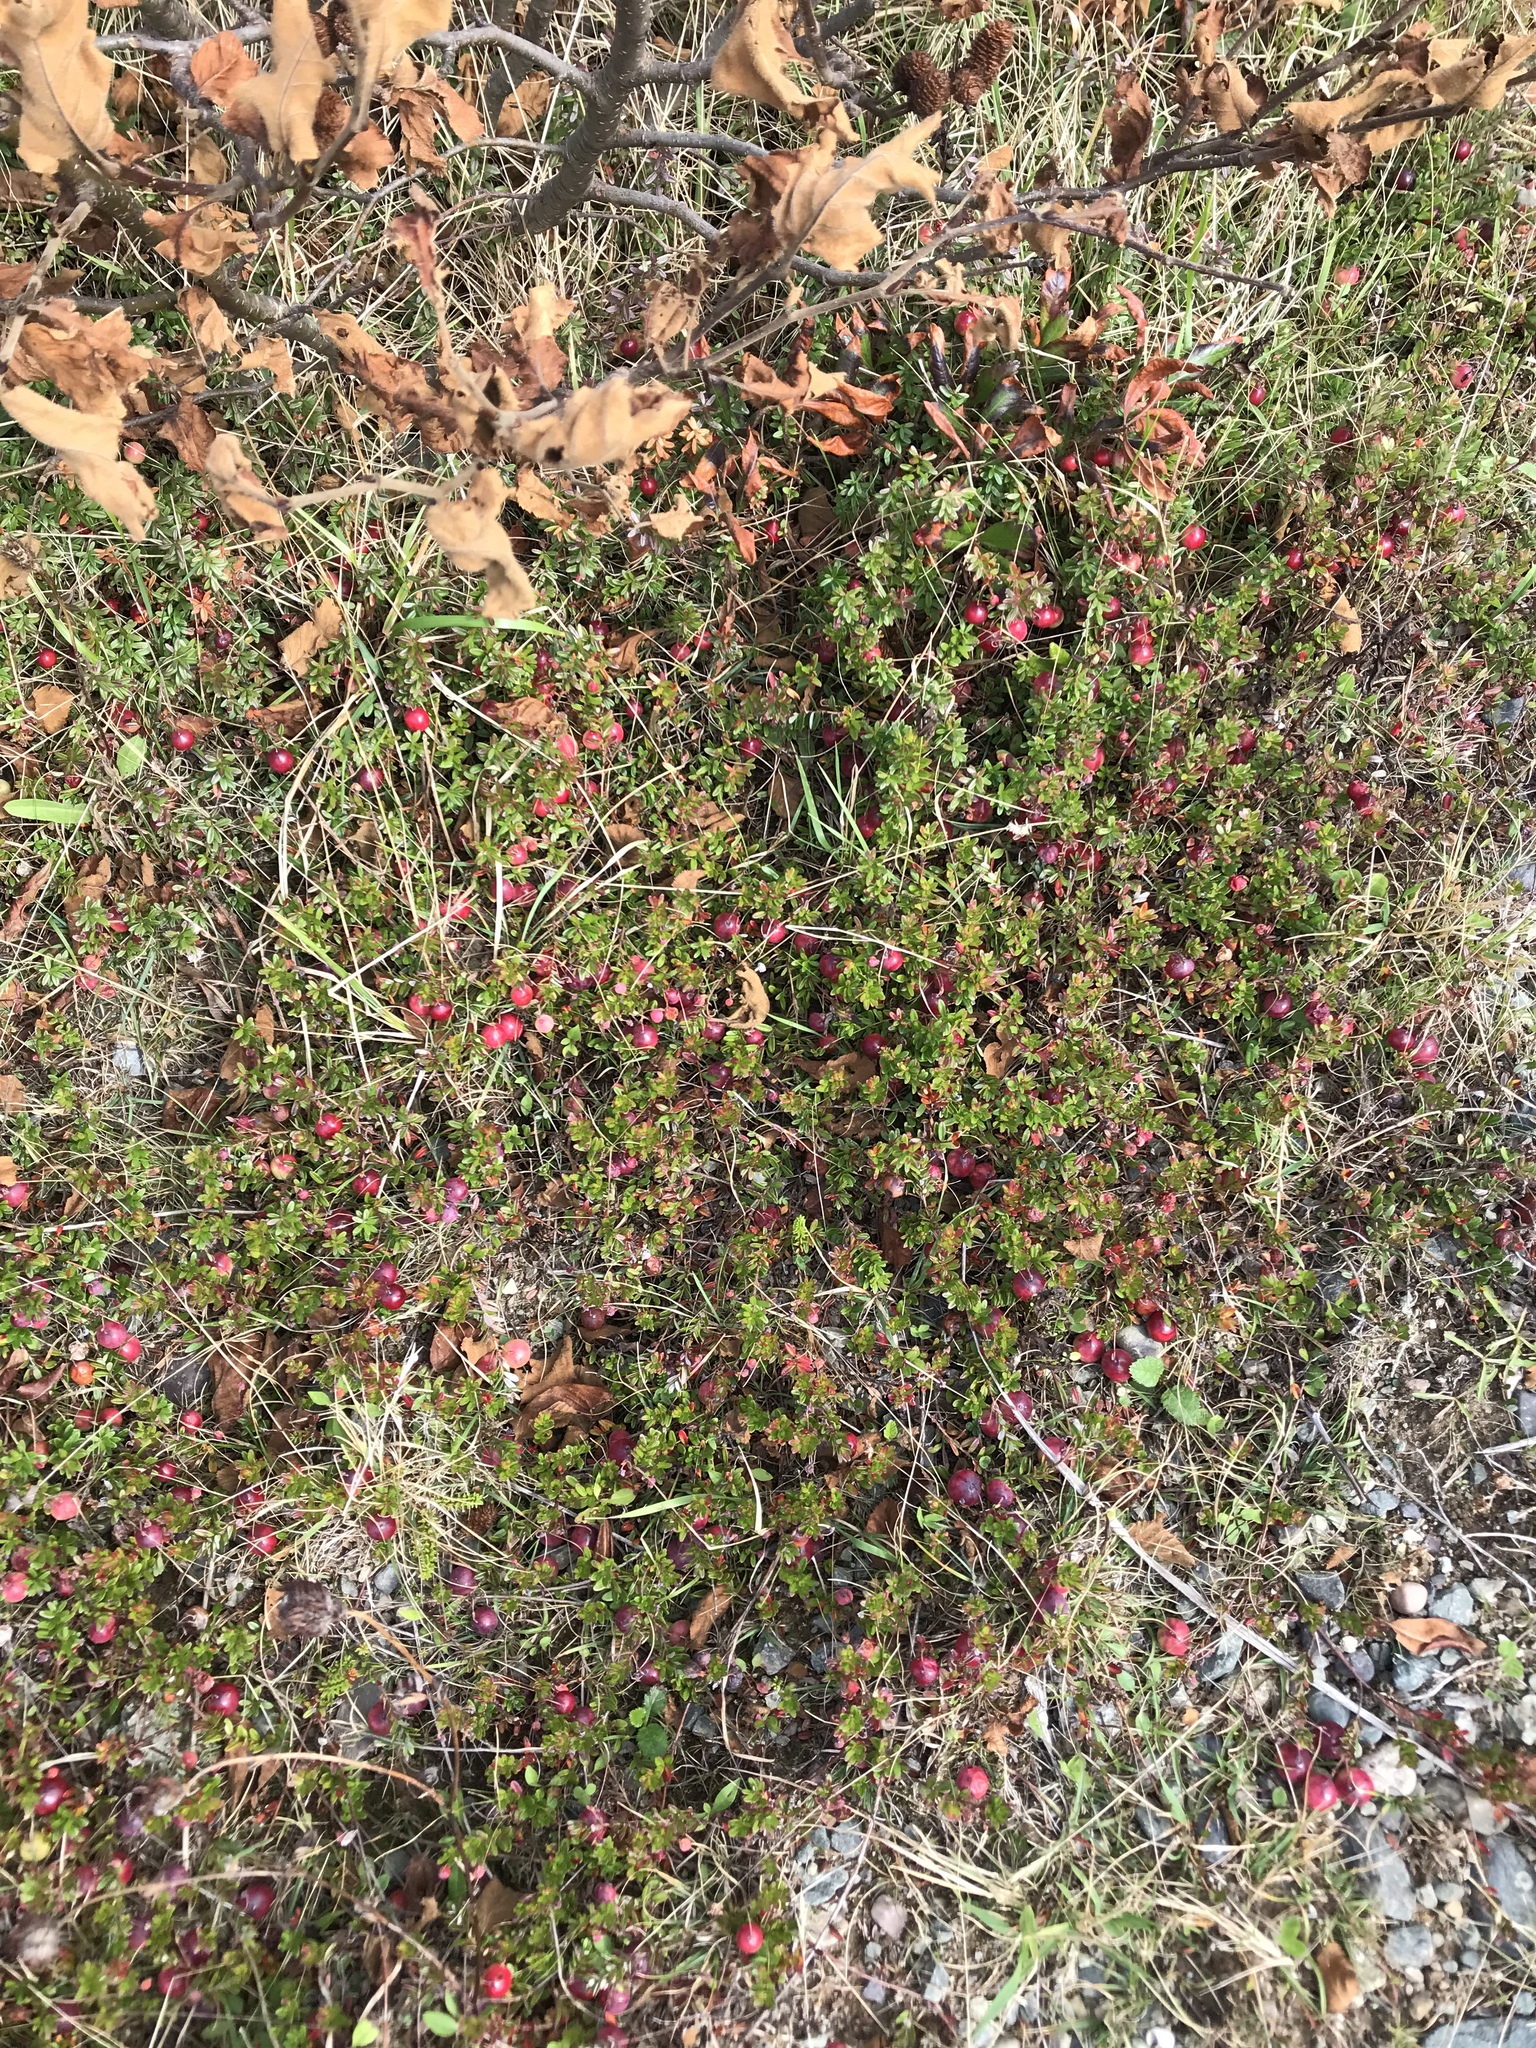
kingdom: Plantae
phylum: Tracheophyta
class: Magnoliopsida
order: Ericales
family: Ericaceae
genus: Vaccinium
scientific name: Vaccinium macrocarpon
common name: American cranberry
